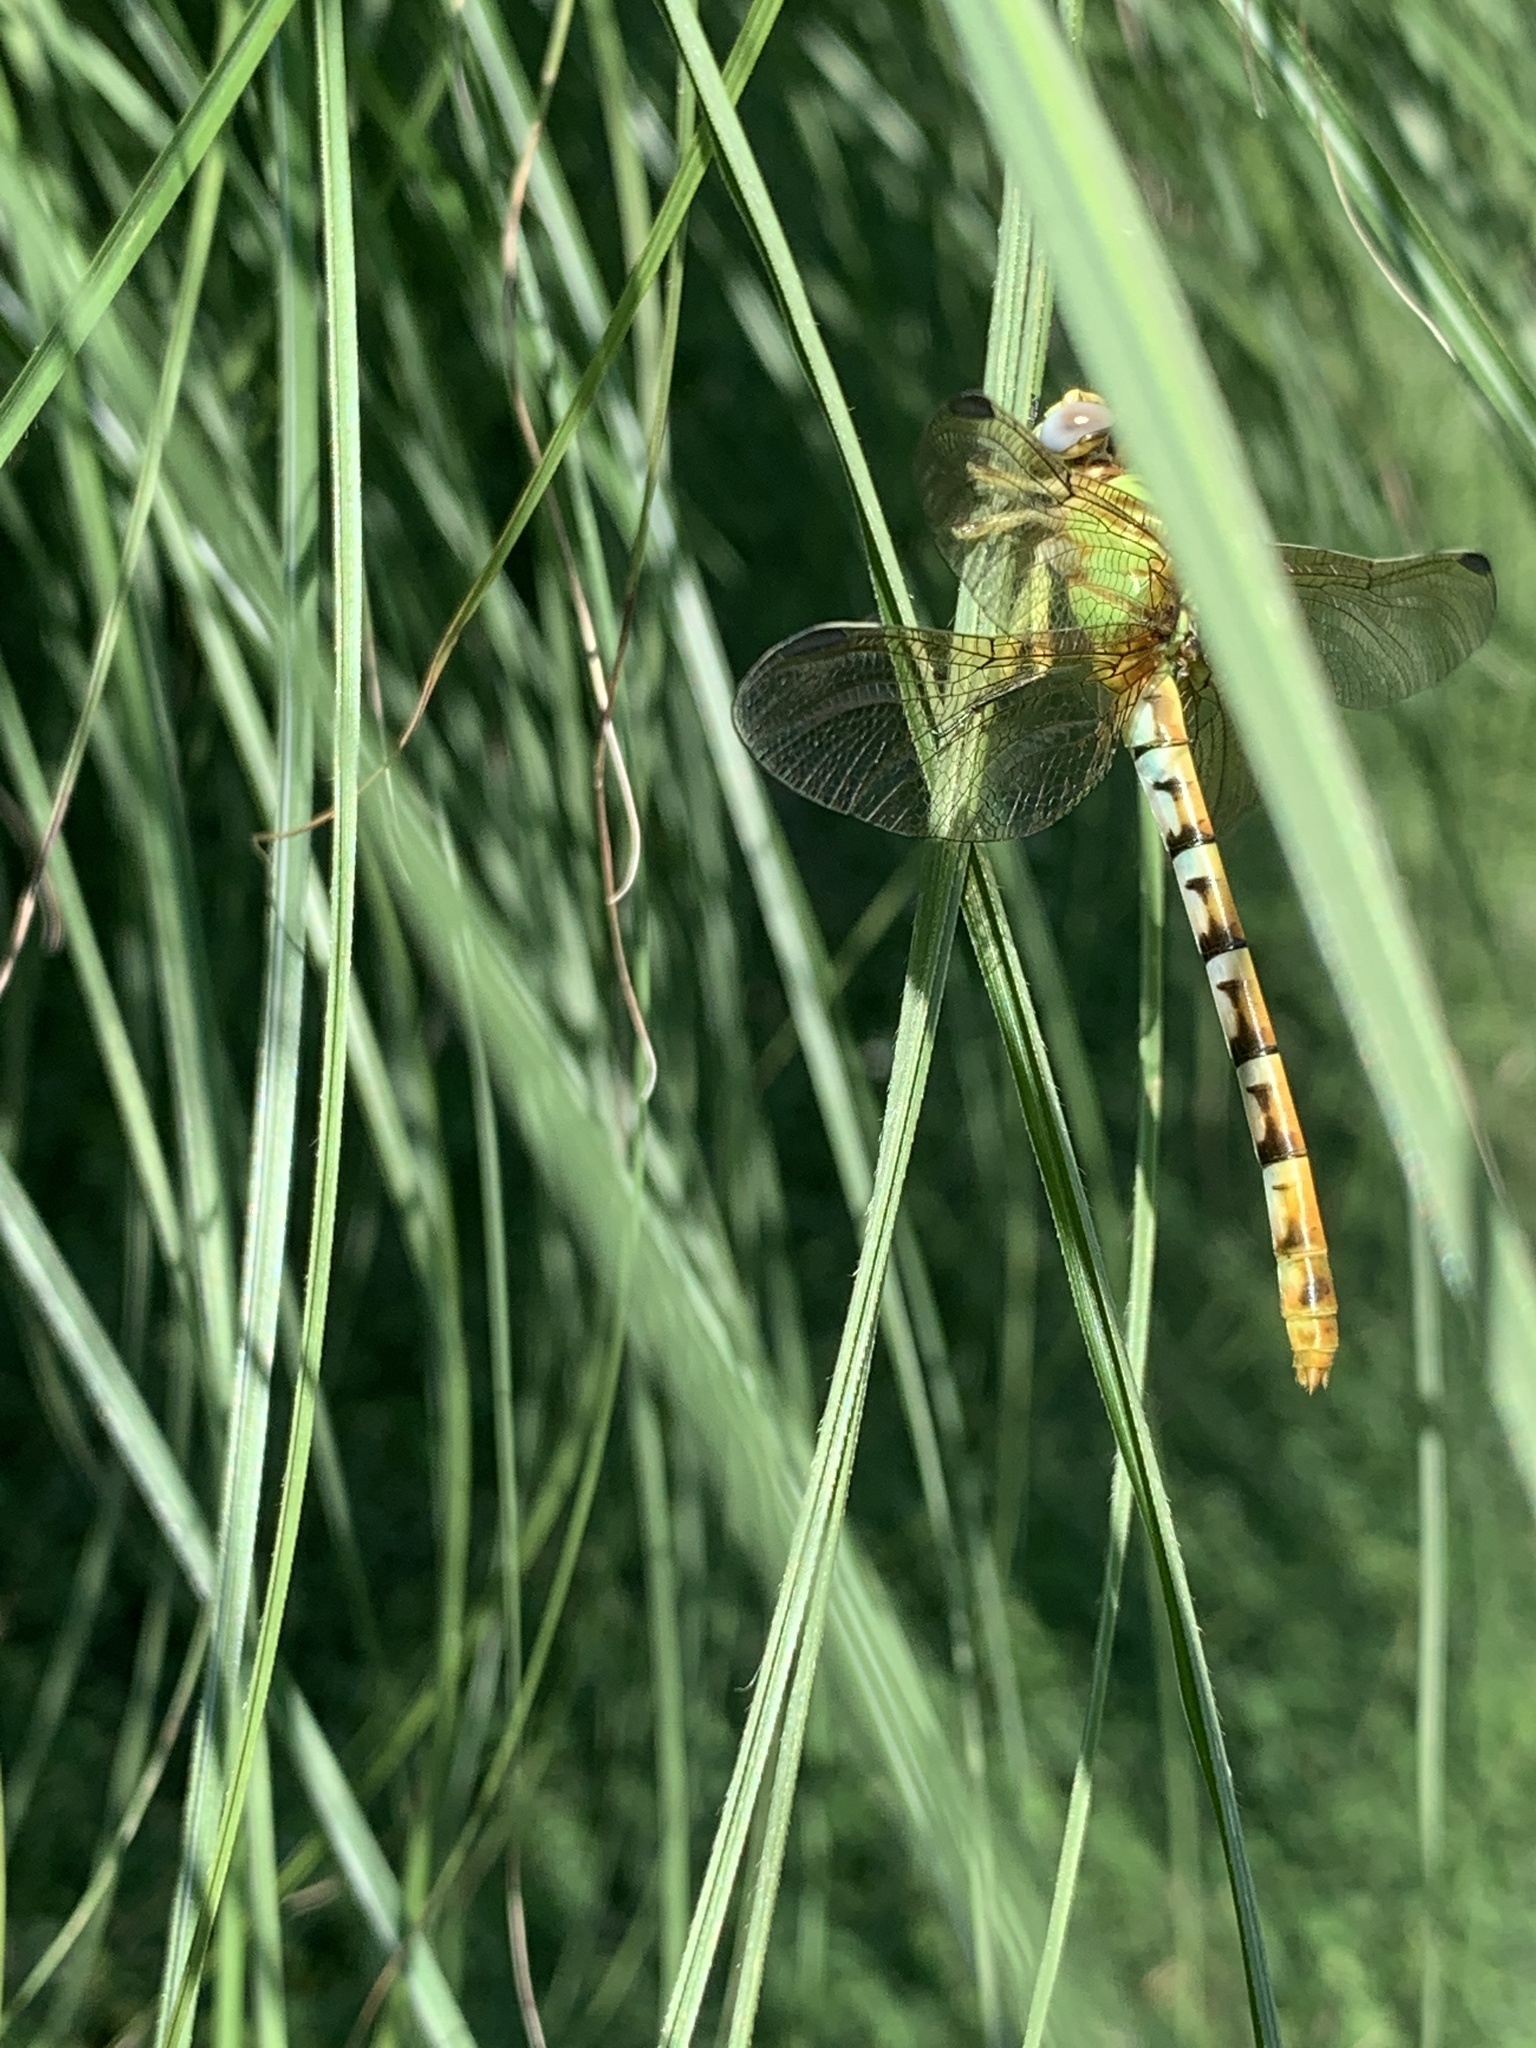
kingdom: Animalia
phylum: Arthropoda
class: Insecta
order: Odonata
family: Gomphidae
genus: Erpetogomphus
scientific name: Erpetogomphus designatus
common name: Eastern ringtail
